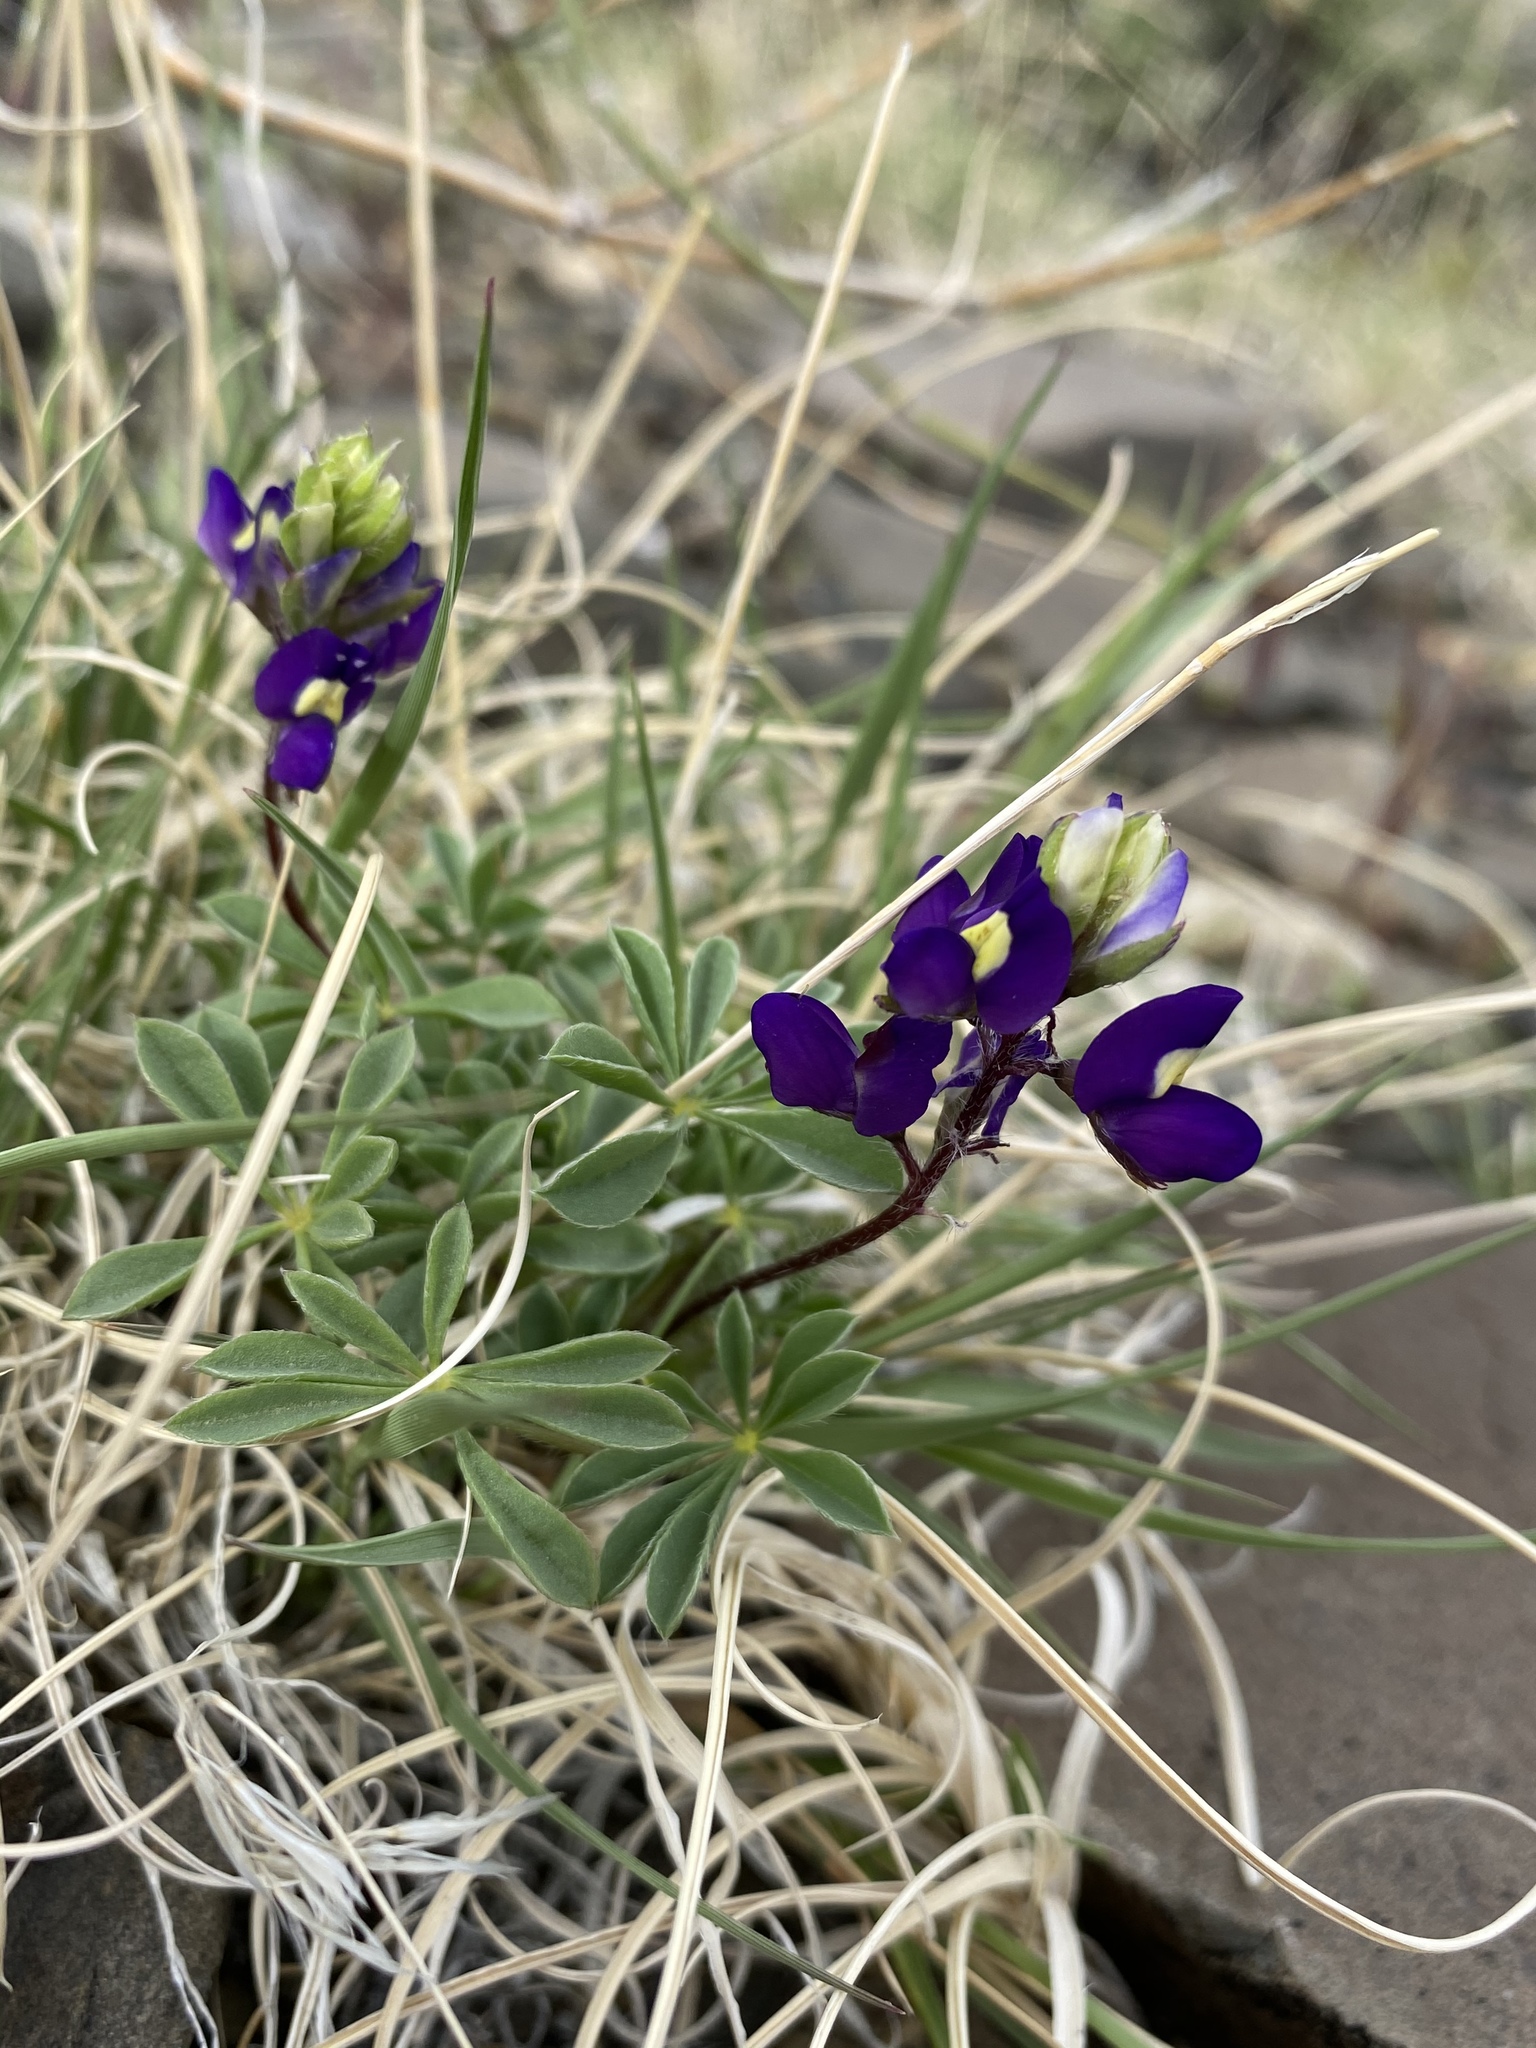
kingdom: Plantae
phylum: Tracheophyta
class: Magnoliopsida
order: Fabales
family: Fabaceae
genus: Lupinus
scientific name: Lupinus flavoculatus
